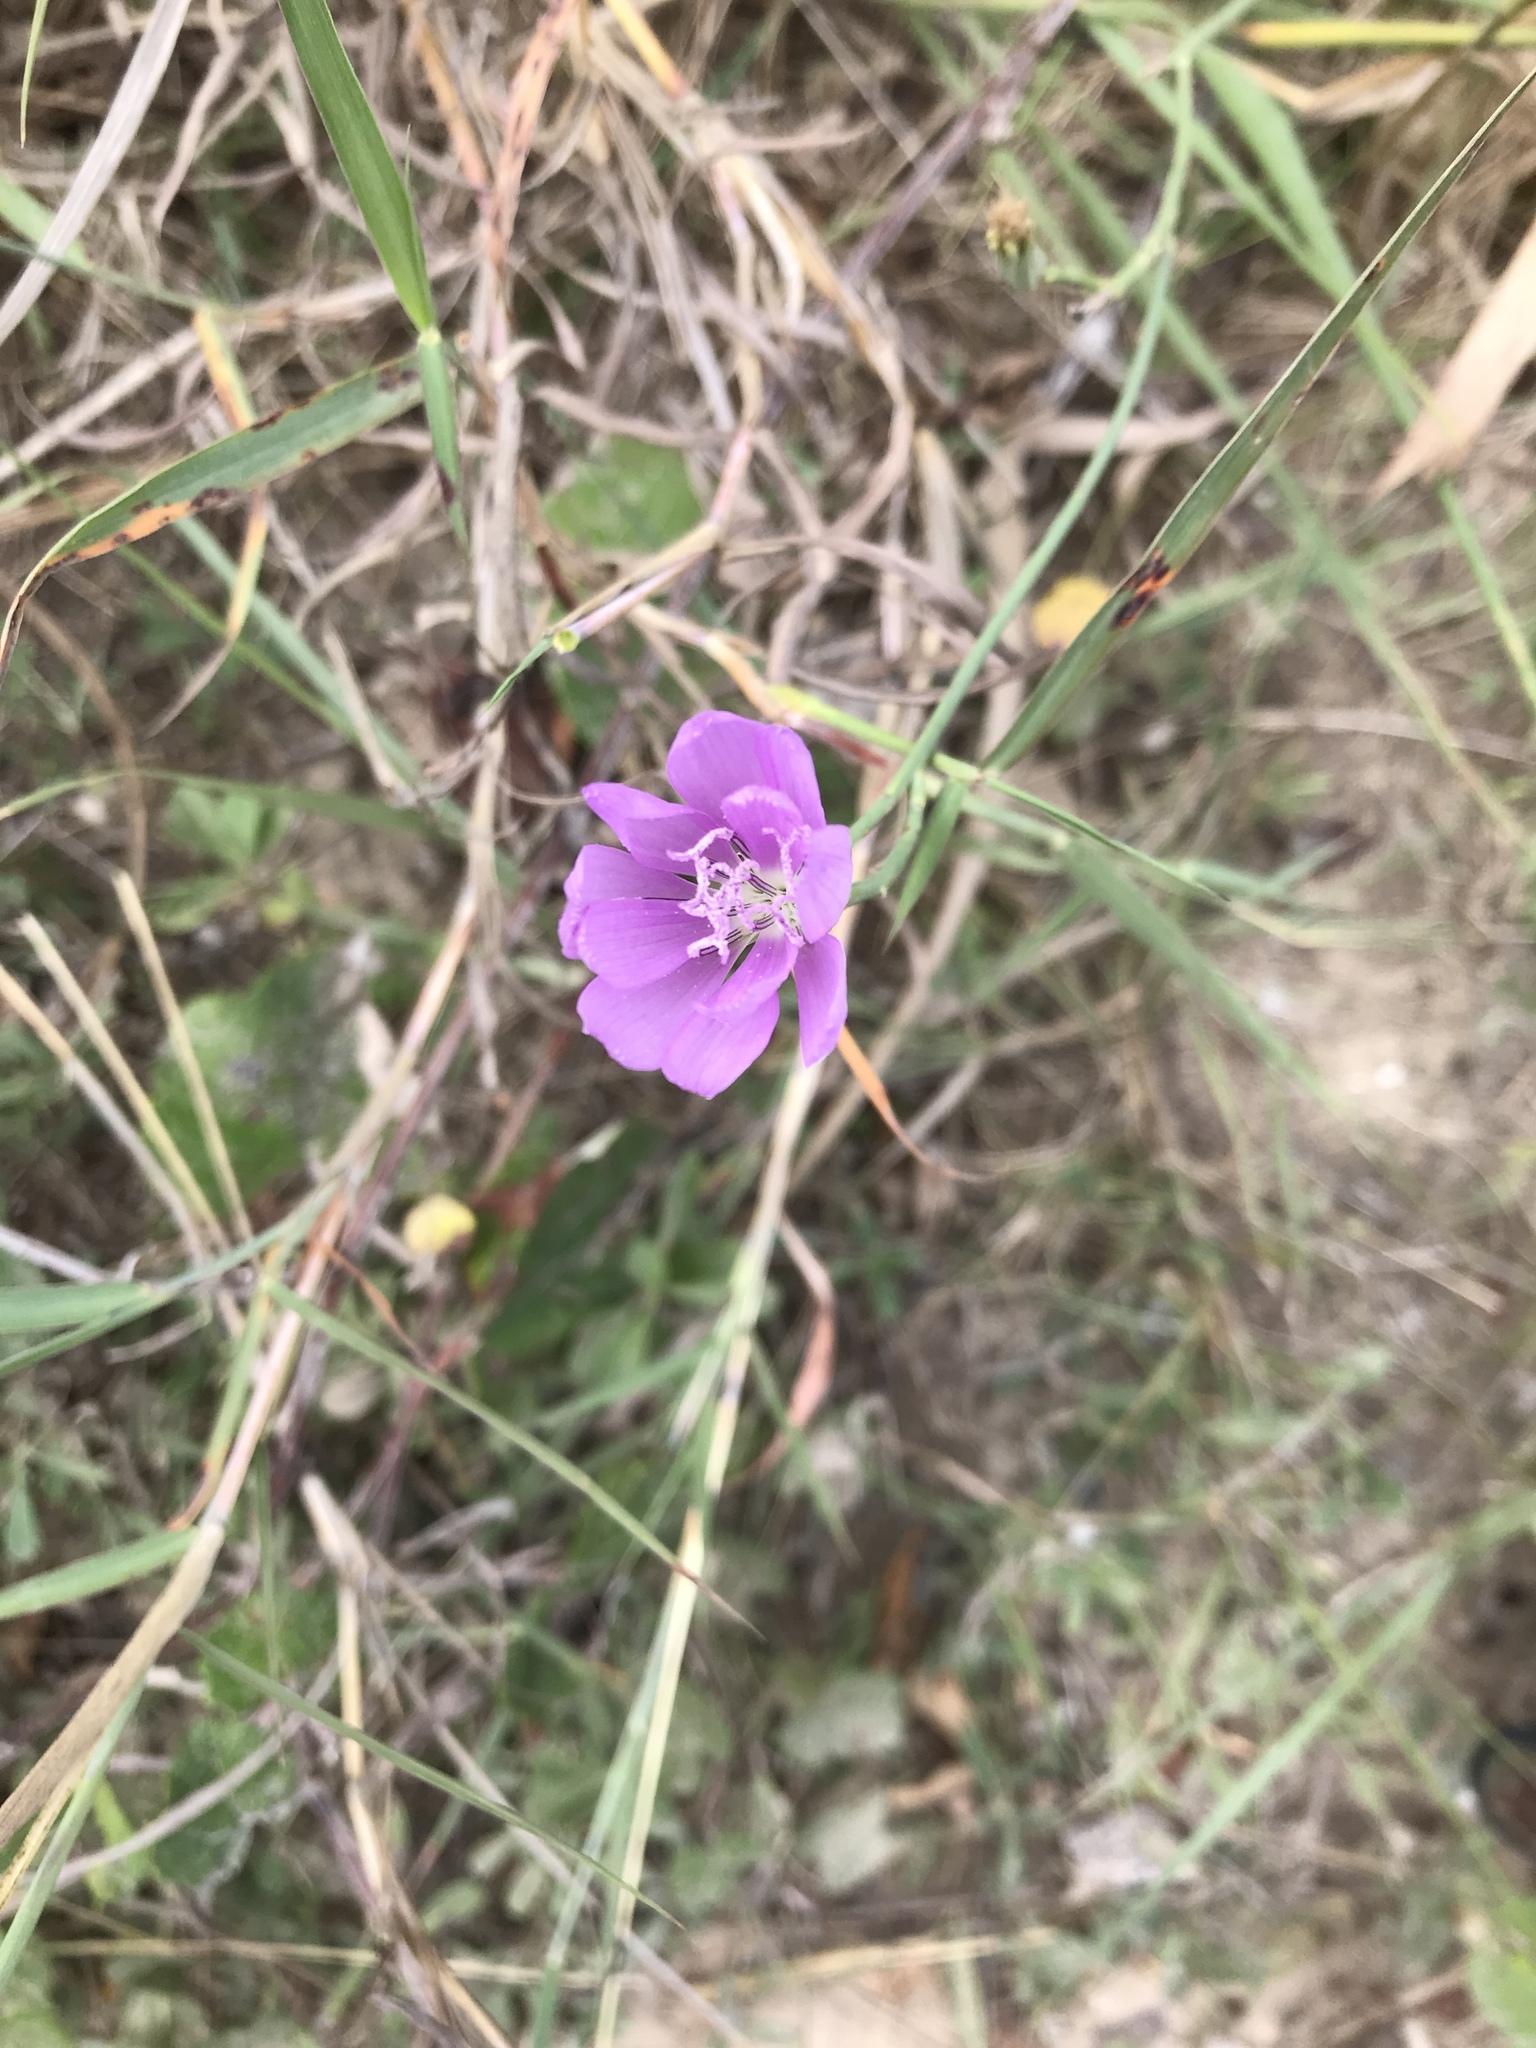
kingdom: Plantae
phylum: Tracheophyta
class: Magnoliopsida
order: Asterales
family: Asteraceae
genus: Lygodesmia
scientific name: Lygodesmia texana
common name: Texas skeleton-plant
